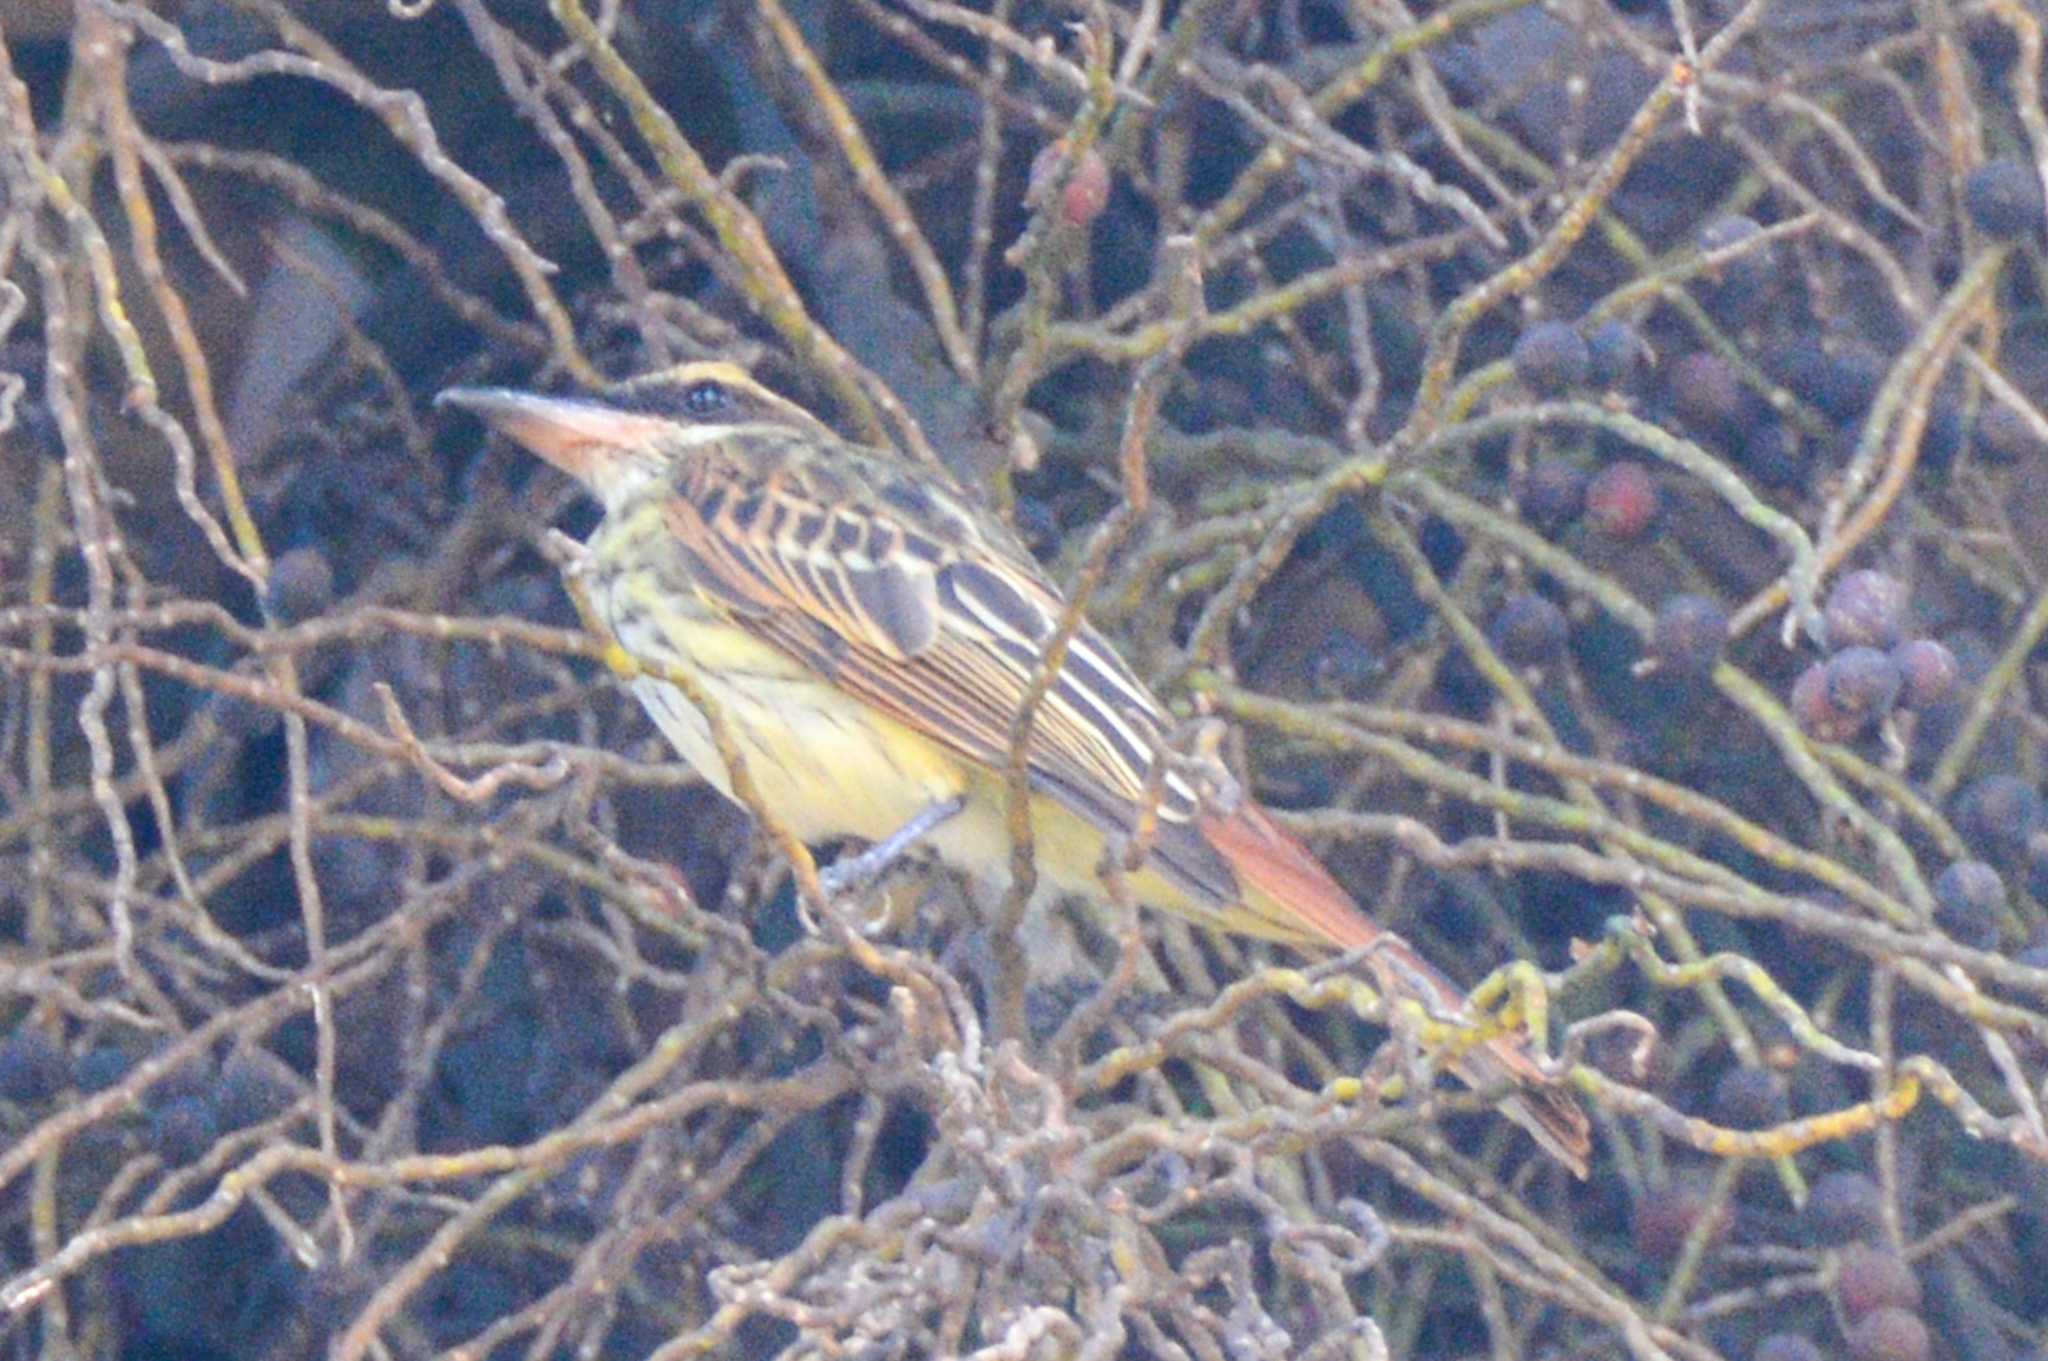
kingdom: Animalia
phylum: Chordata
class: Aves
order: Passeriformes
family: Tyrannidae
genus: Myiodynastes
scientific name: Myiodynastes luteiventris
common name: Sulphur-bellied flycatcher
